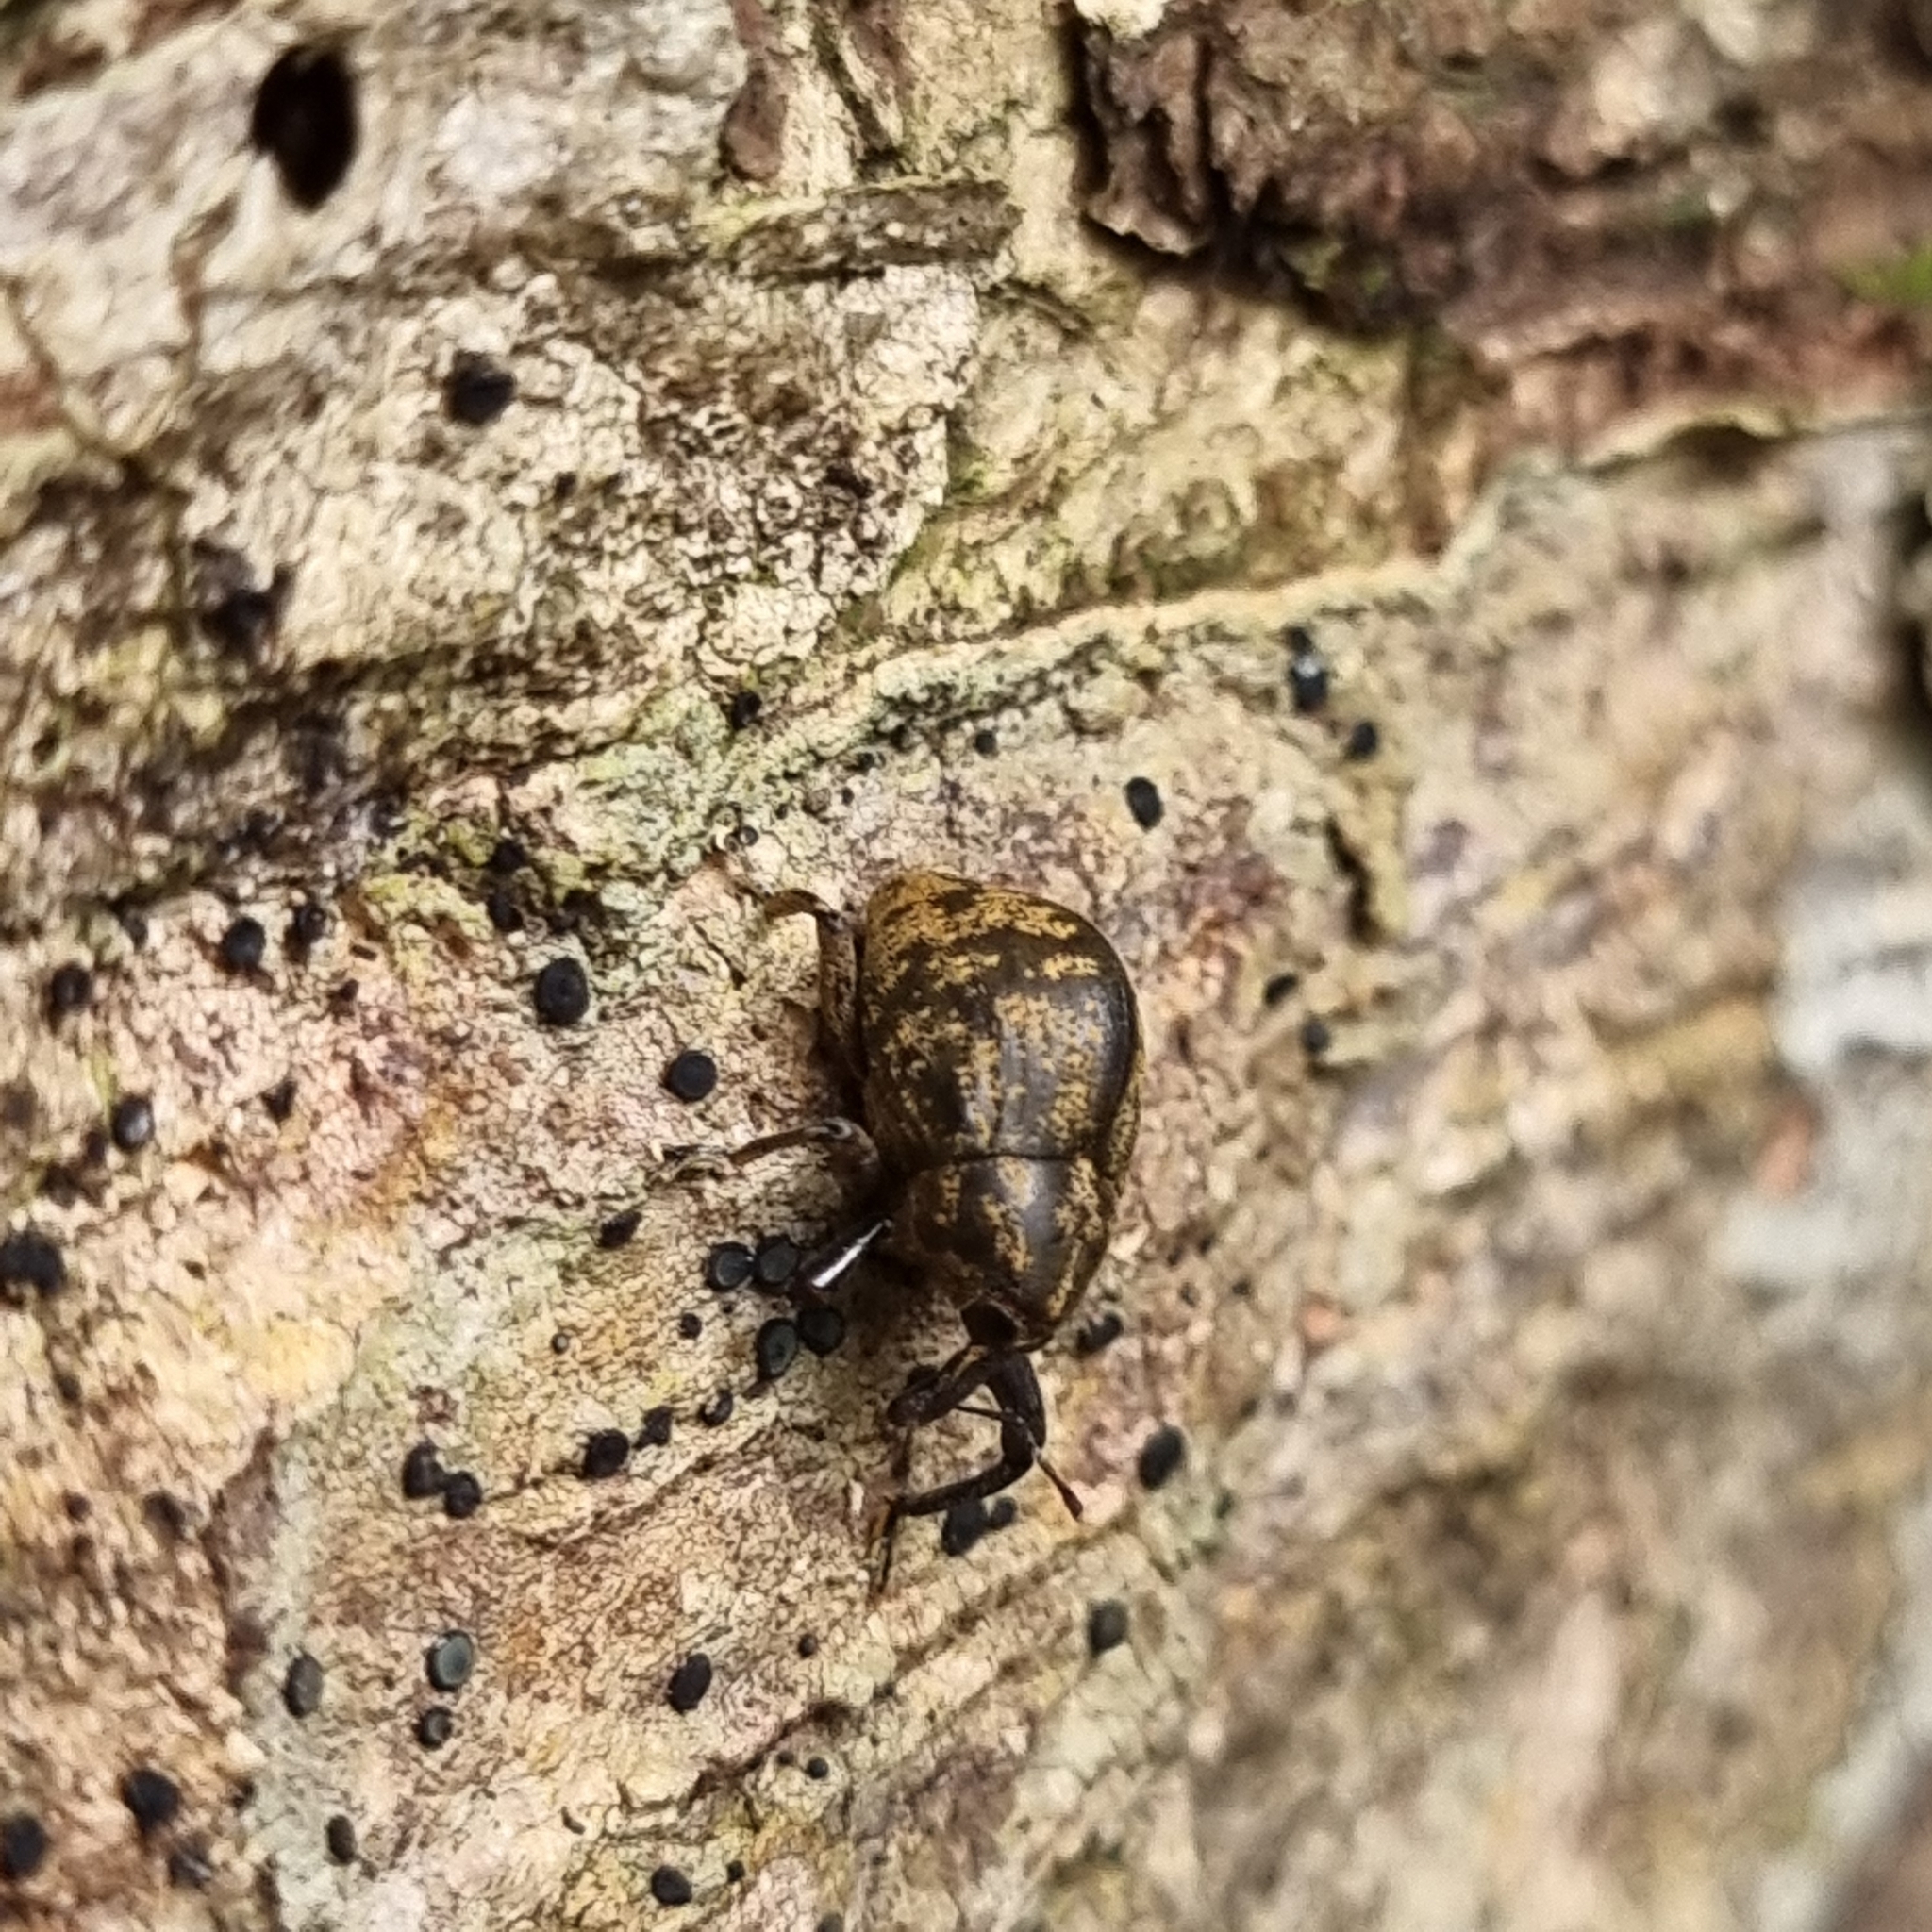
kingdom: Animalia
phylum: Arthropoda
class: Insecta
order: Coleoptera
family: Curculionidae
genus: Perissops
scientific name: Perissops mucidus
